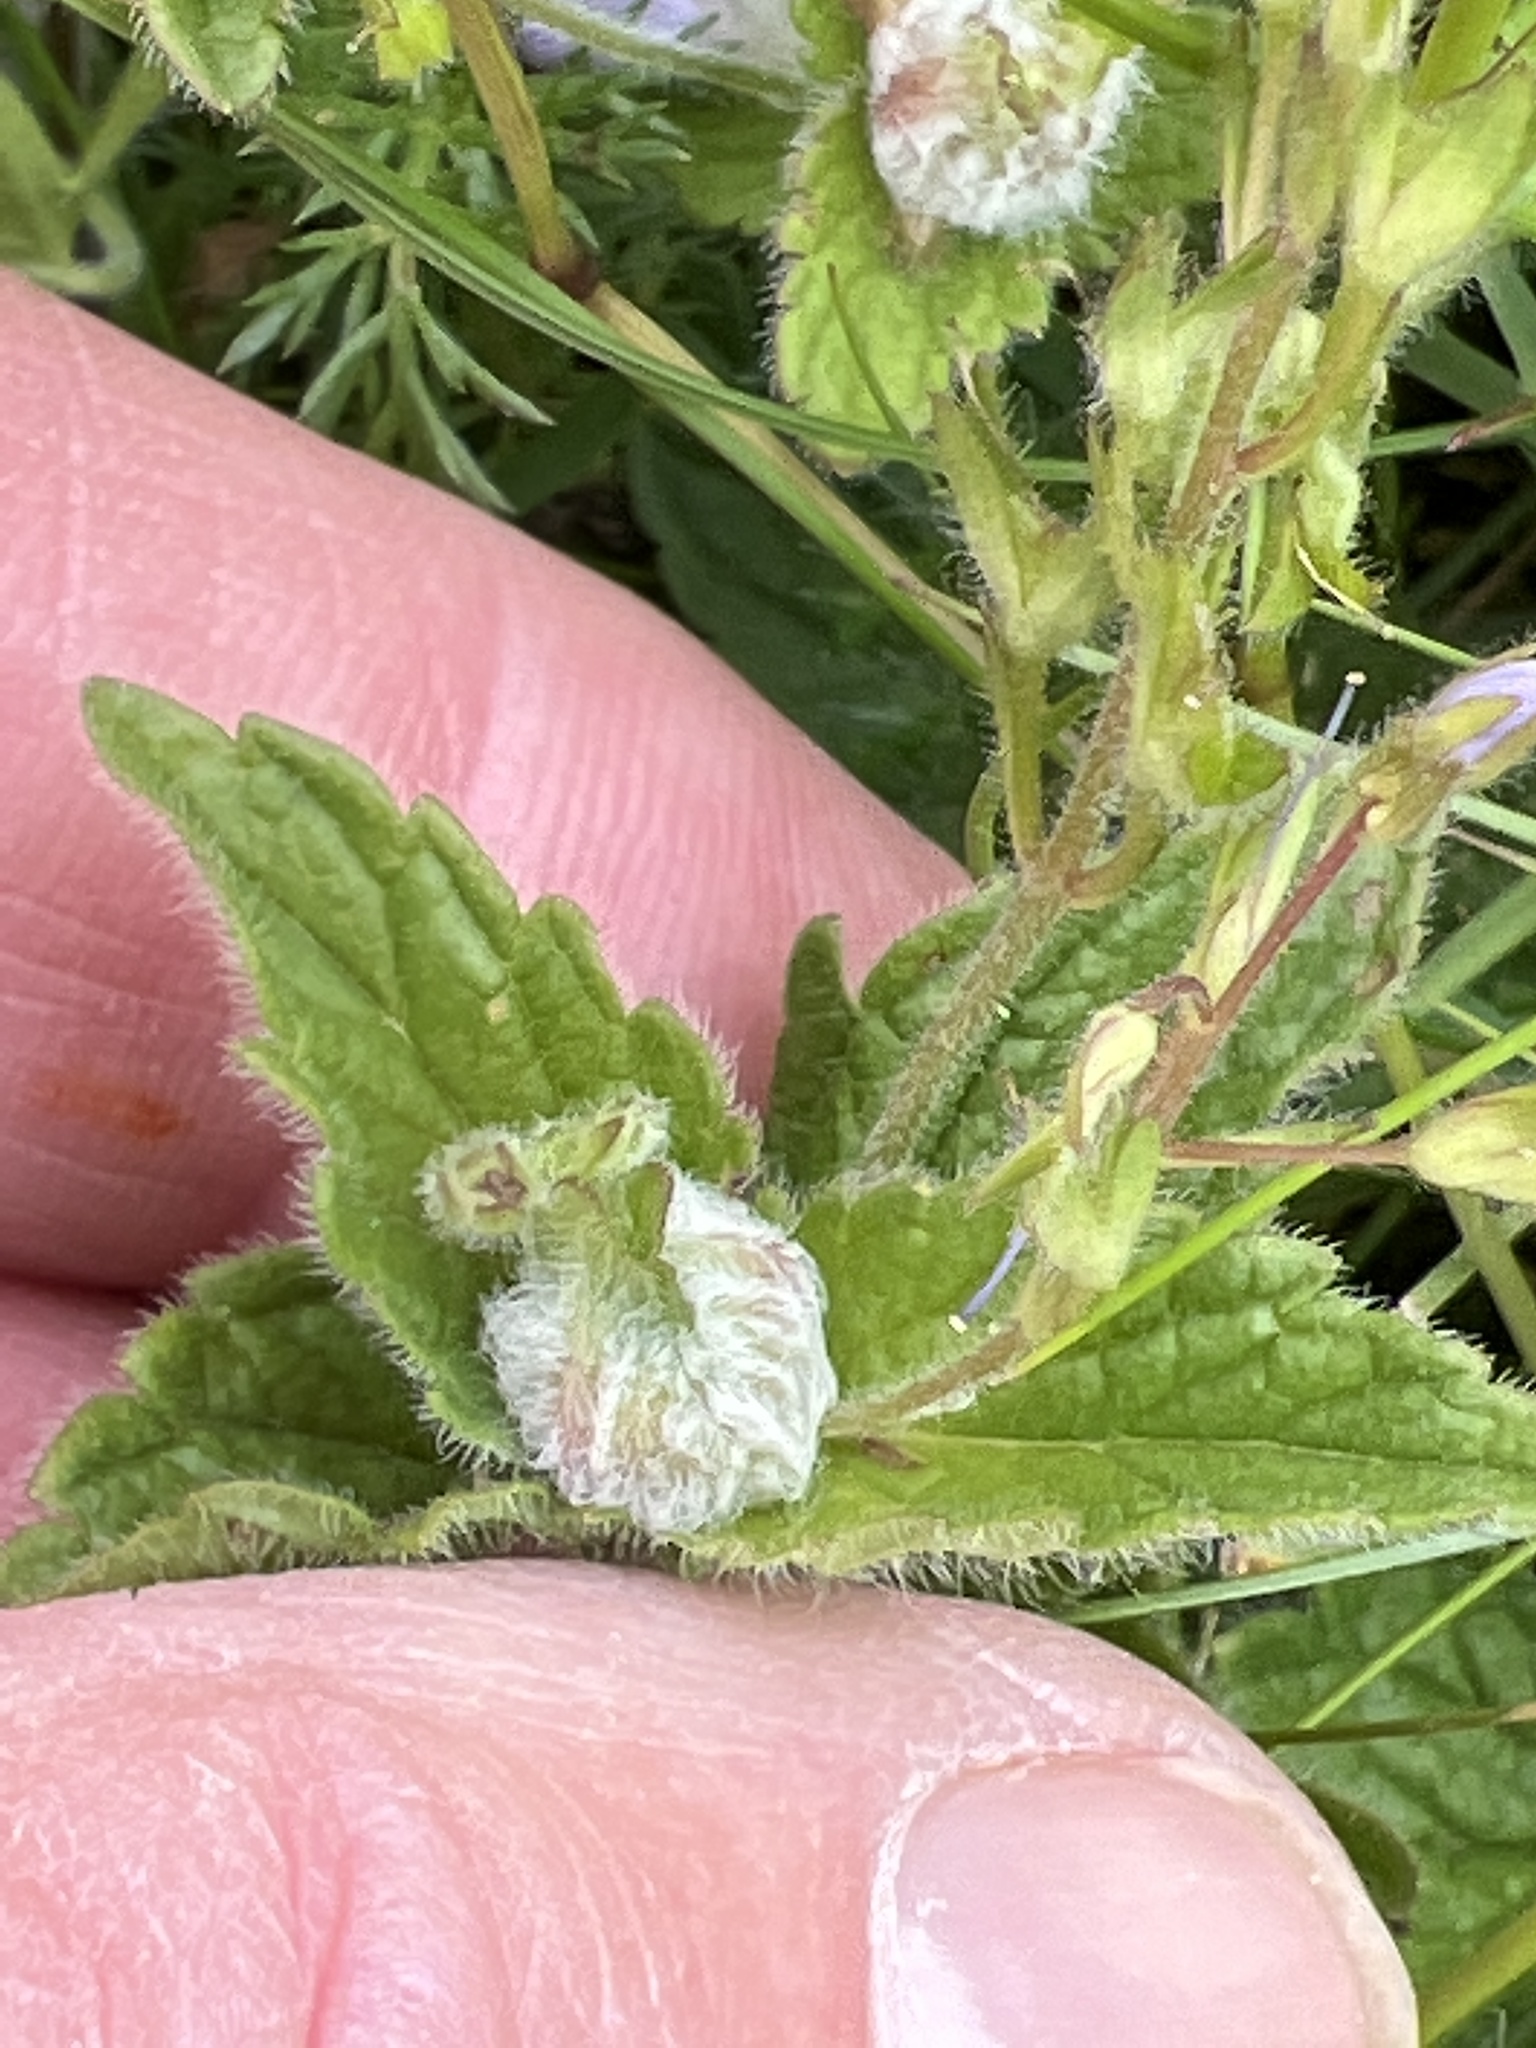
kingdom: Animalia
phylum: Arthropoda
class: Insecta
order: Diptera
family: Cecidomyiidae
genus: Jaapiella
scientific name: Jaapiella veronicae
